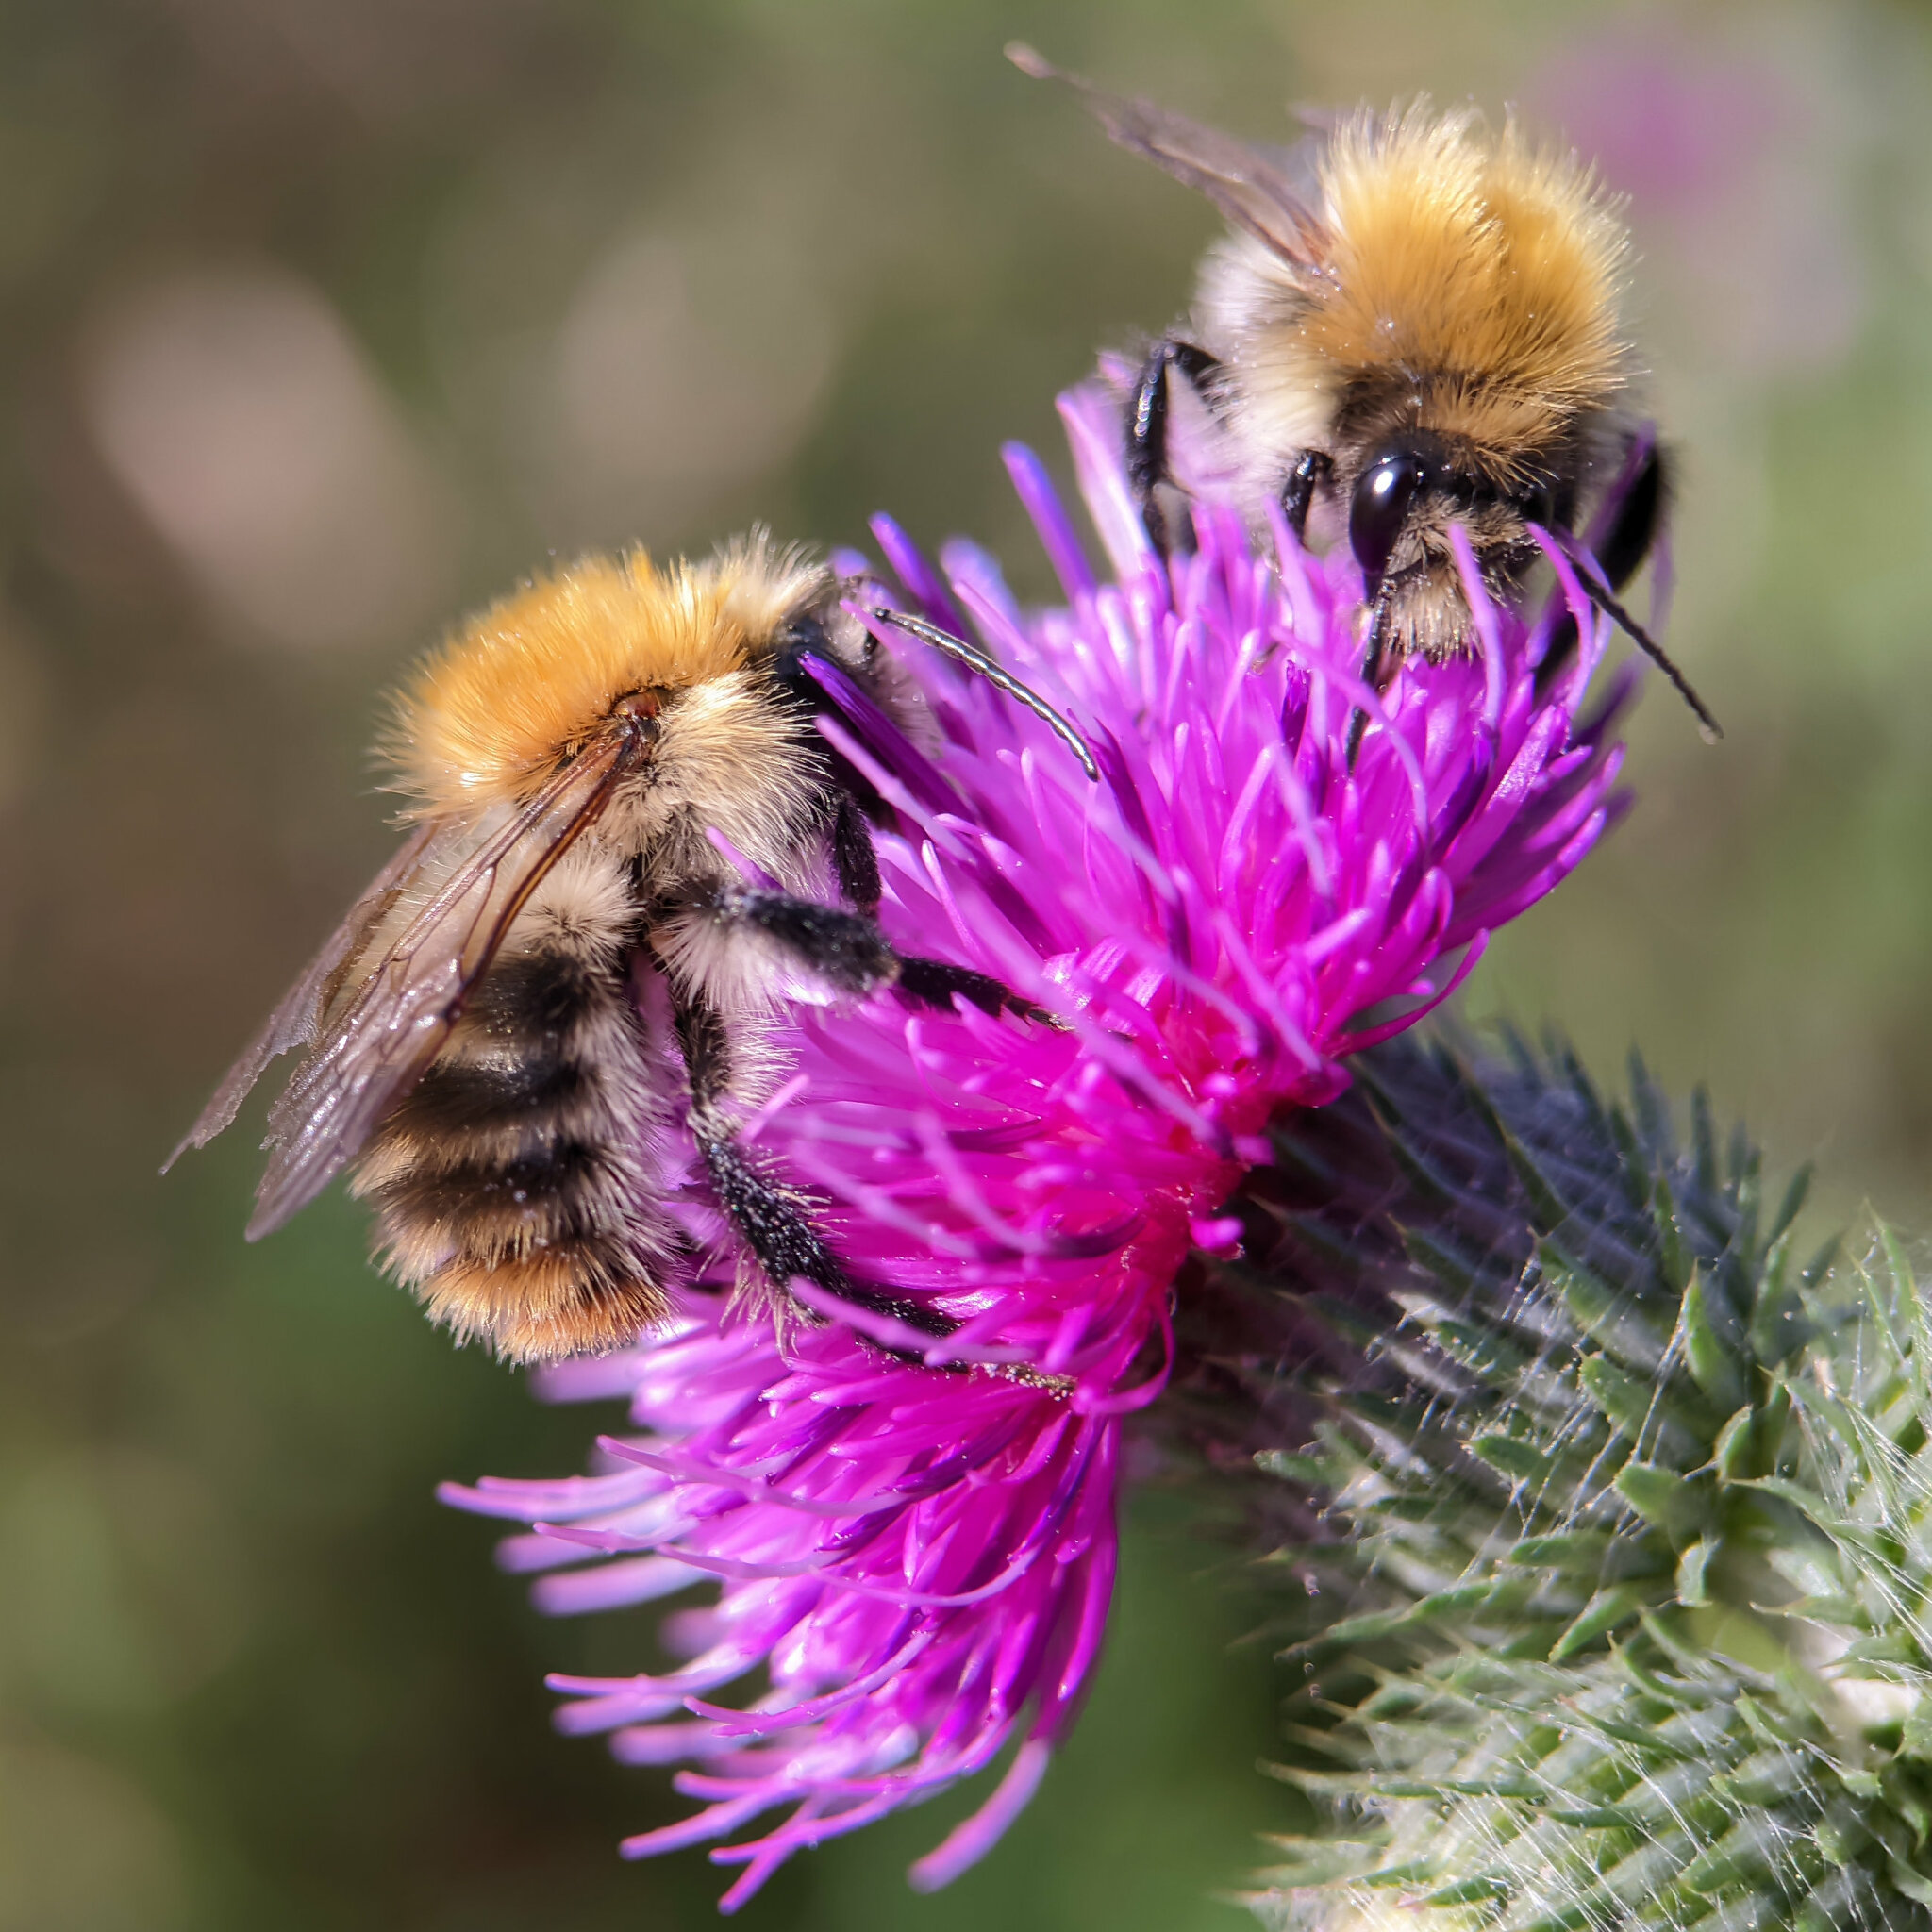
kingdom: Animalia
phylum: Arthropoda
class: Insecta
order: Hymenoptera
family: Apidae
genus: Bombus
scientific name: Bombus pascuorum
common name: Common carder bee
